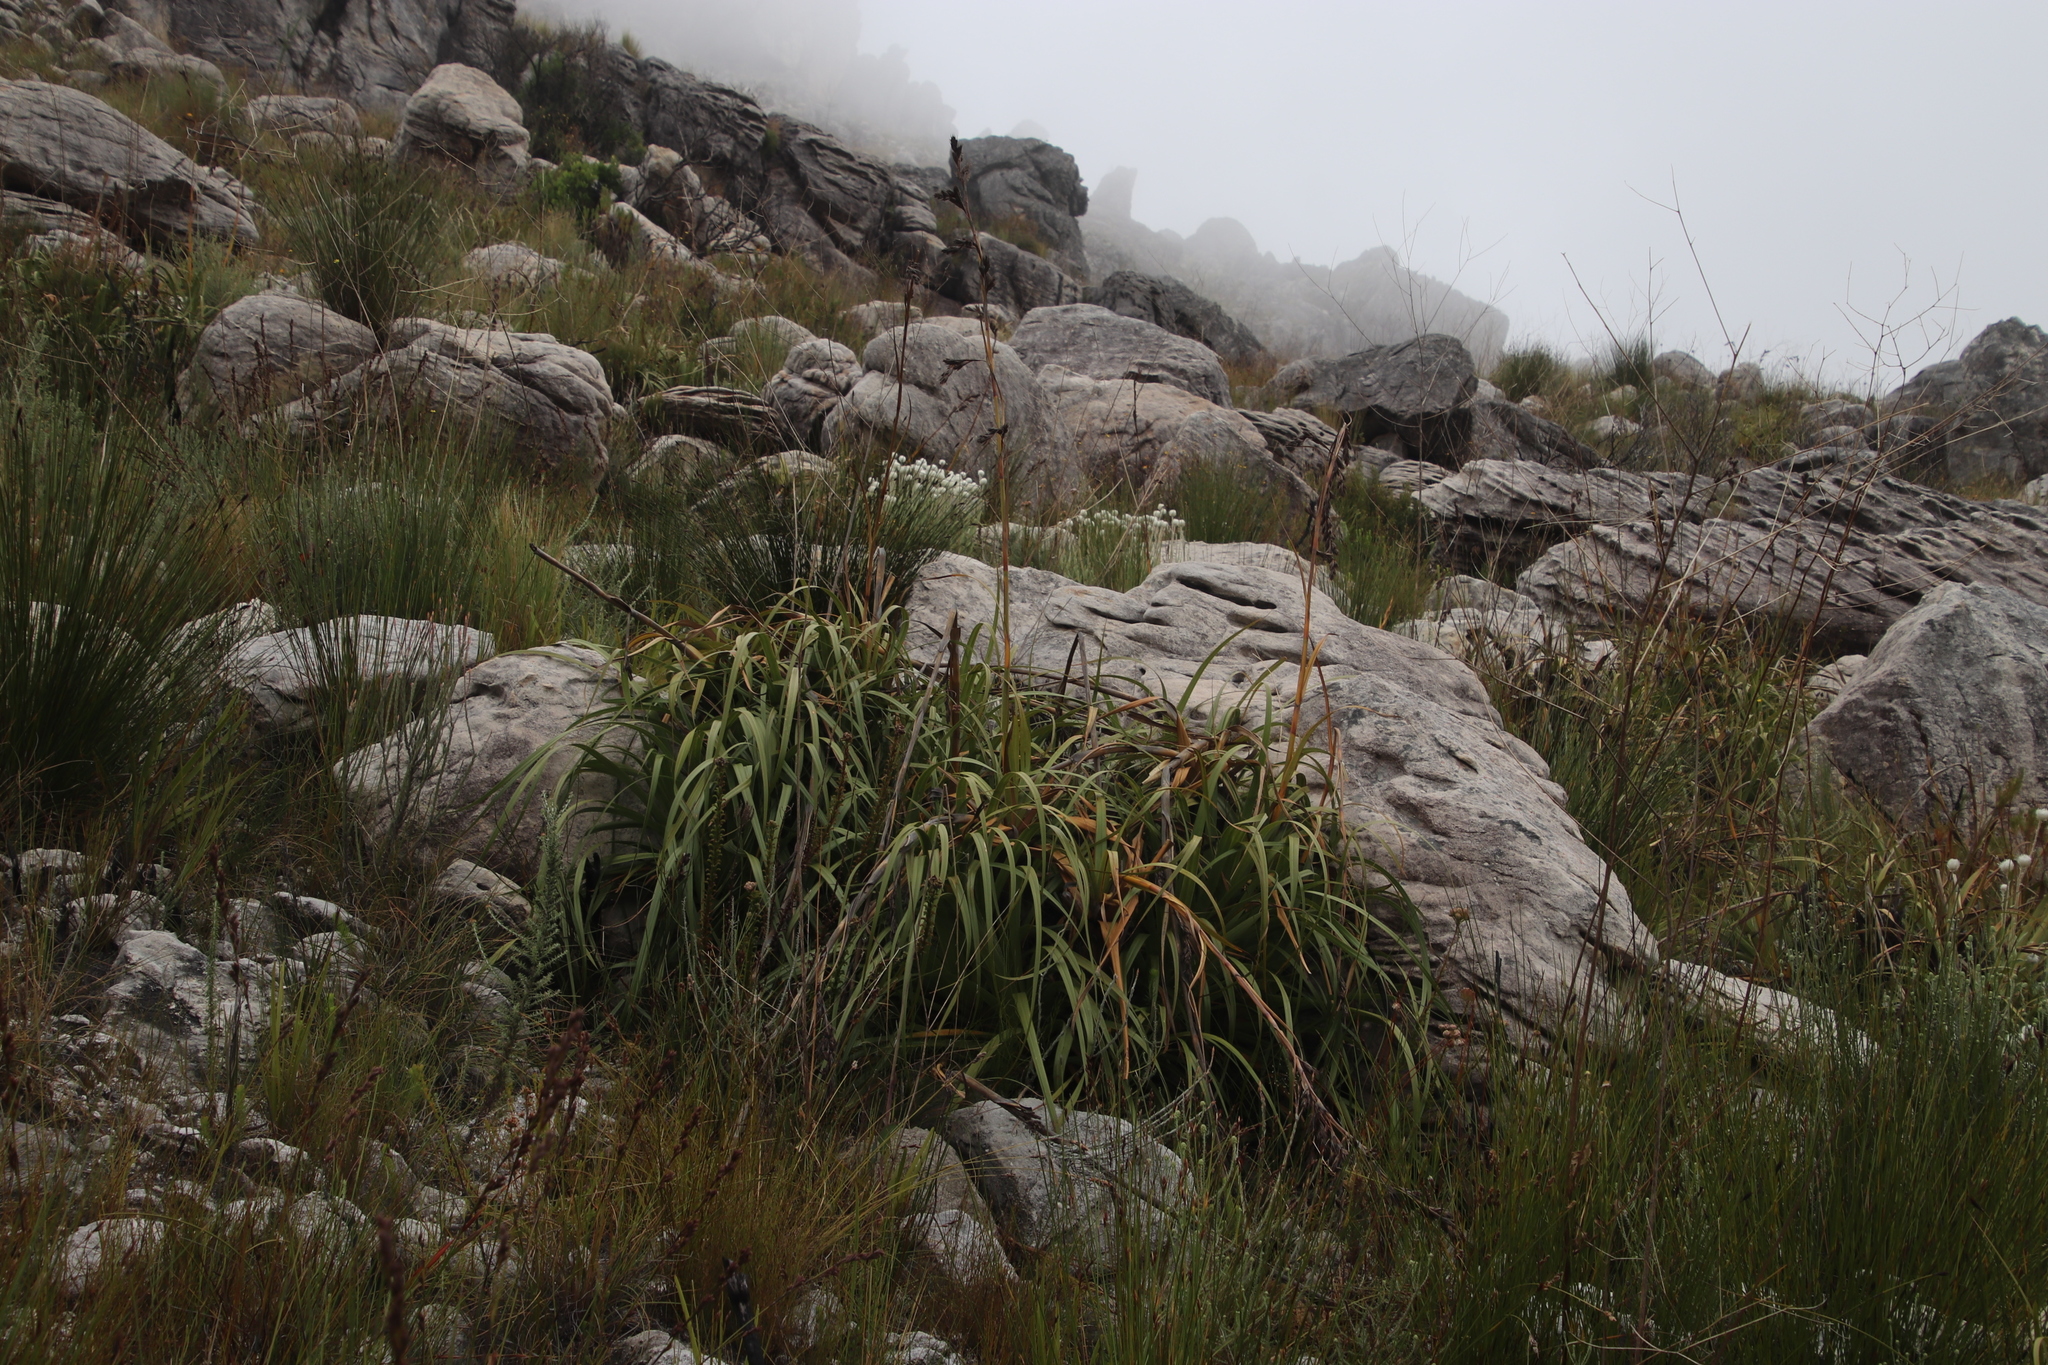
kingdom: Plantae
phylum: Tracheophyta
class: Liliopsida
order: Poales
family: Cyperaceae
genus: Tetraria
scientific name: Tetraria thermalis
